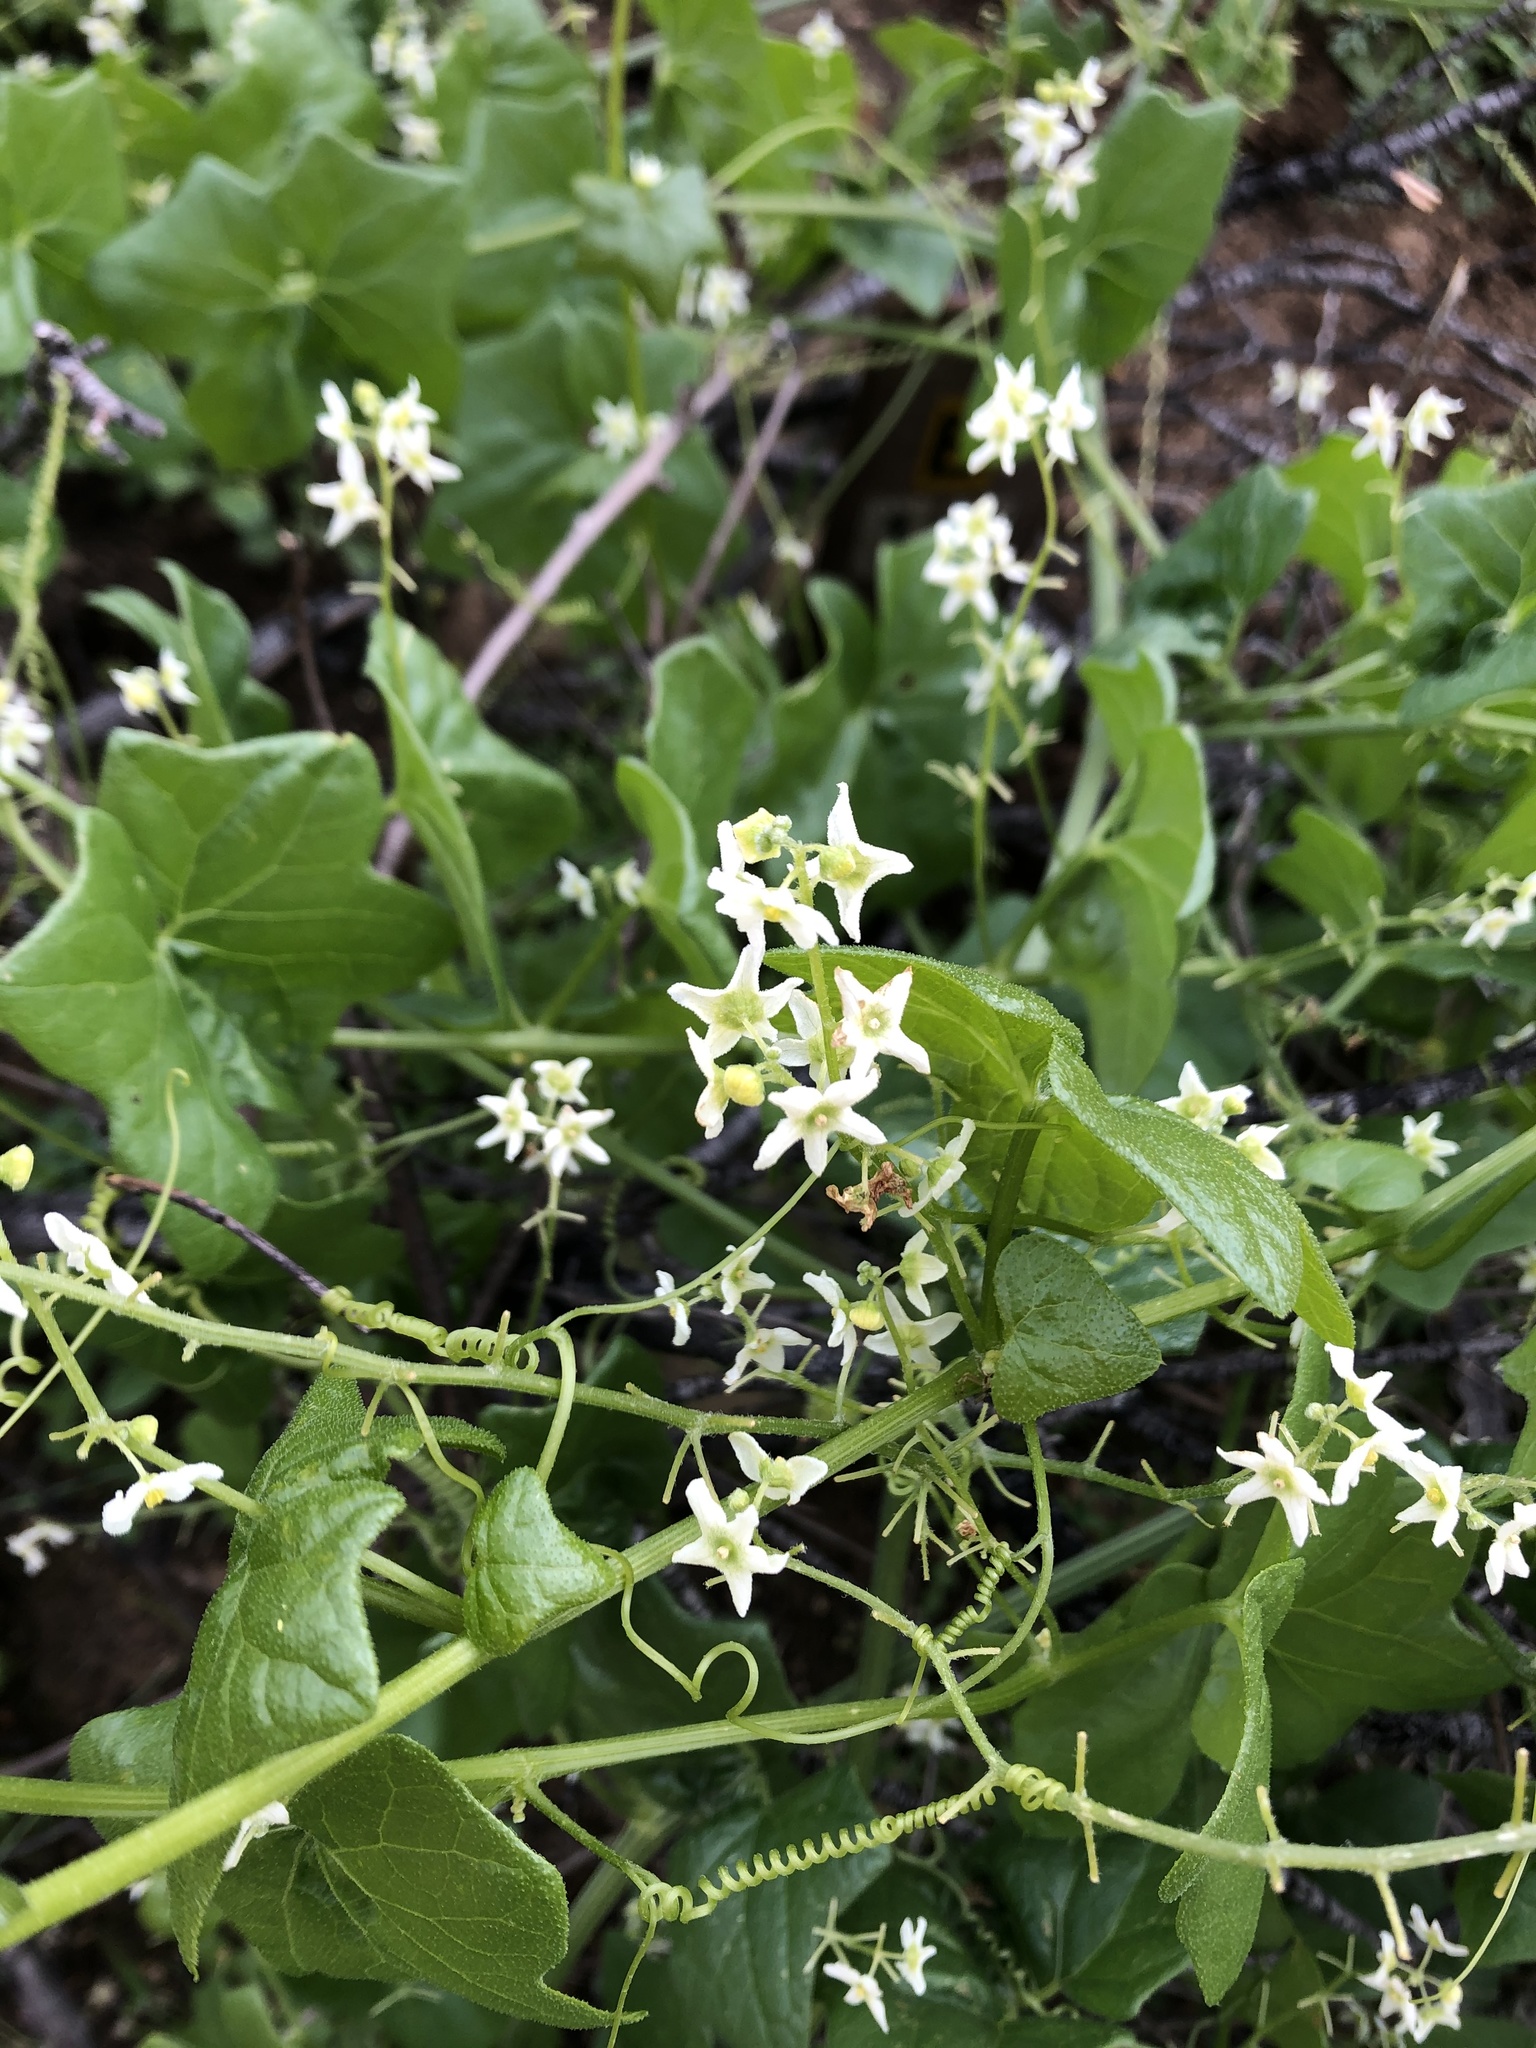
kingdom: Plantae
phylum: Tracheophyta
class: Magnoliopsida
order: Cucurbitales
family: Cucurbitaceae
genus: Marah
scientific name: Marah fabacea
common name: California manroot
